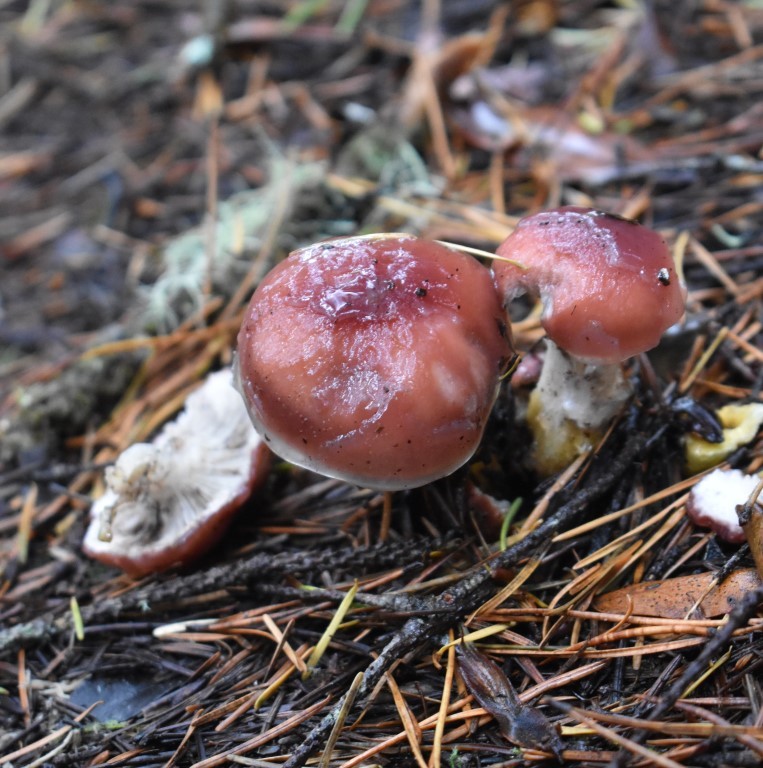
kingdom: Fungi
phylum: Basidiomycota
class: Agaricomycetes
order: Boletales
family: Gomphidiaceae
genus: Gomphidius
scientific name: Gomphidius subroseus
